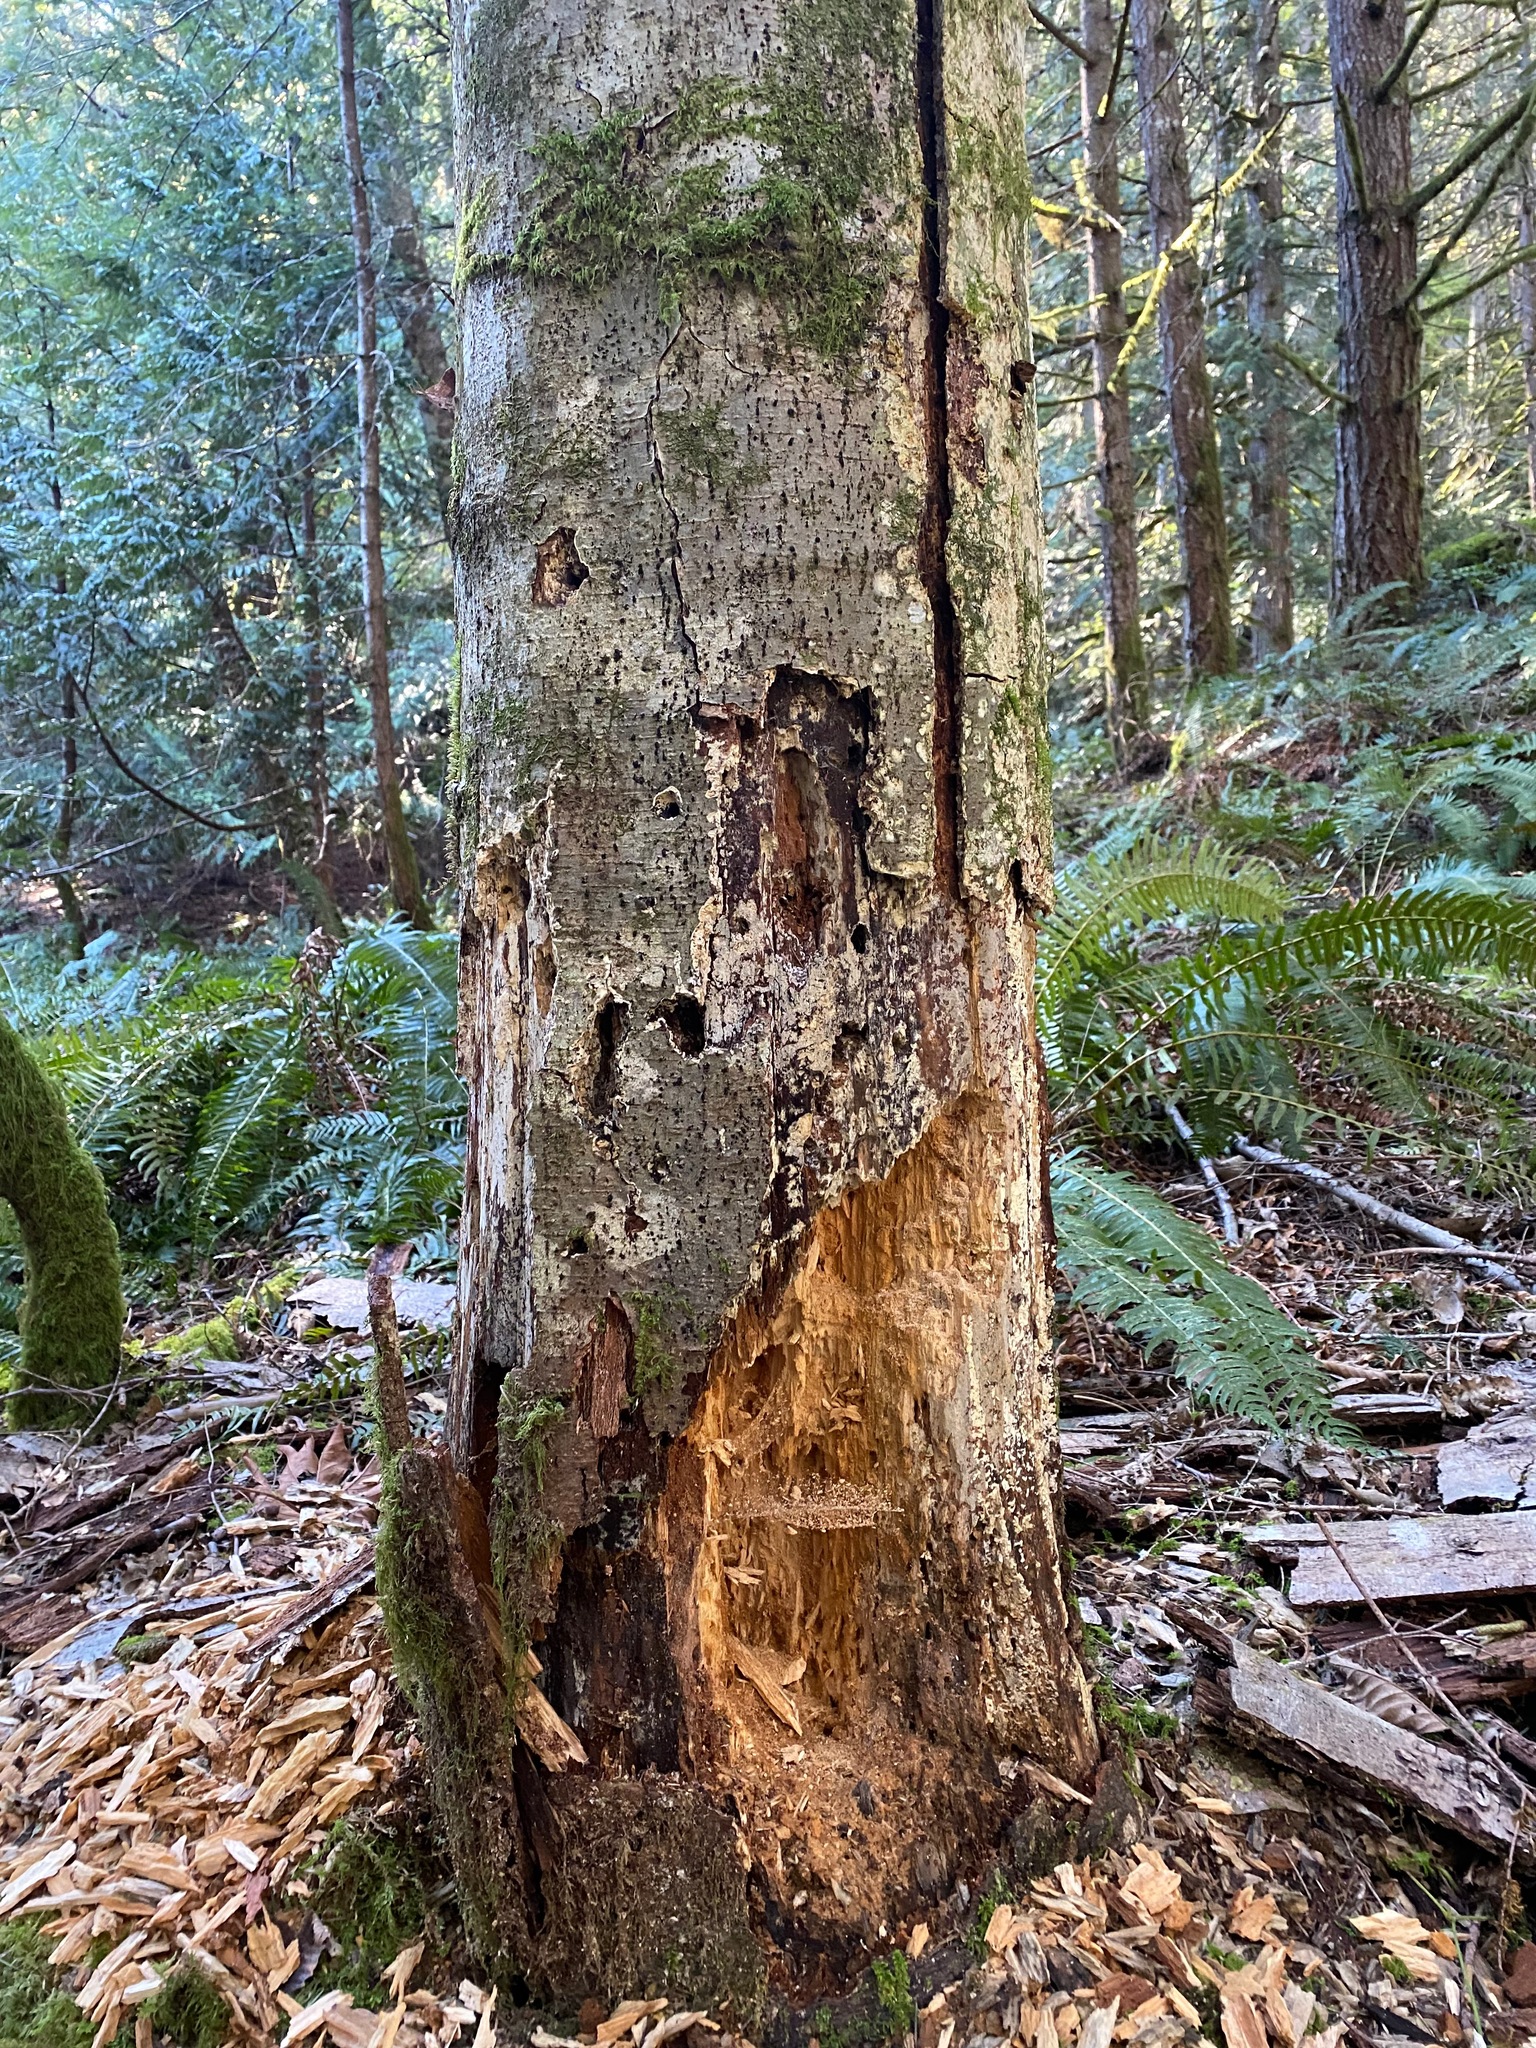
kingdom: Animalia
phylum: Chordata
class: Aves
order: Piciformes
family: Picidae
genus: Dryocopus
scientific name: Dryocopus pileatus
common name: Pileated woodpecker
